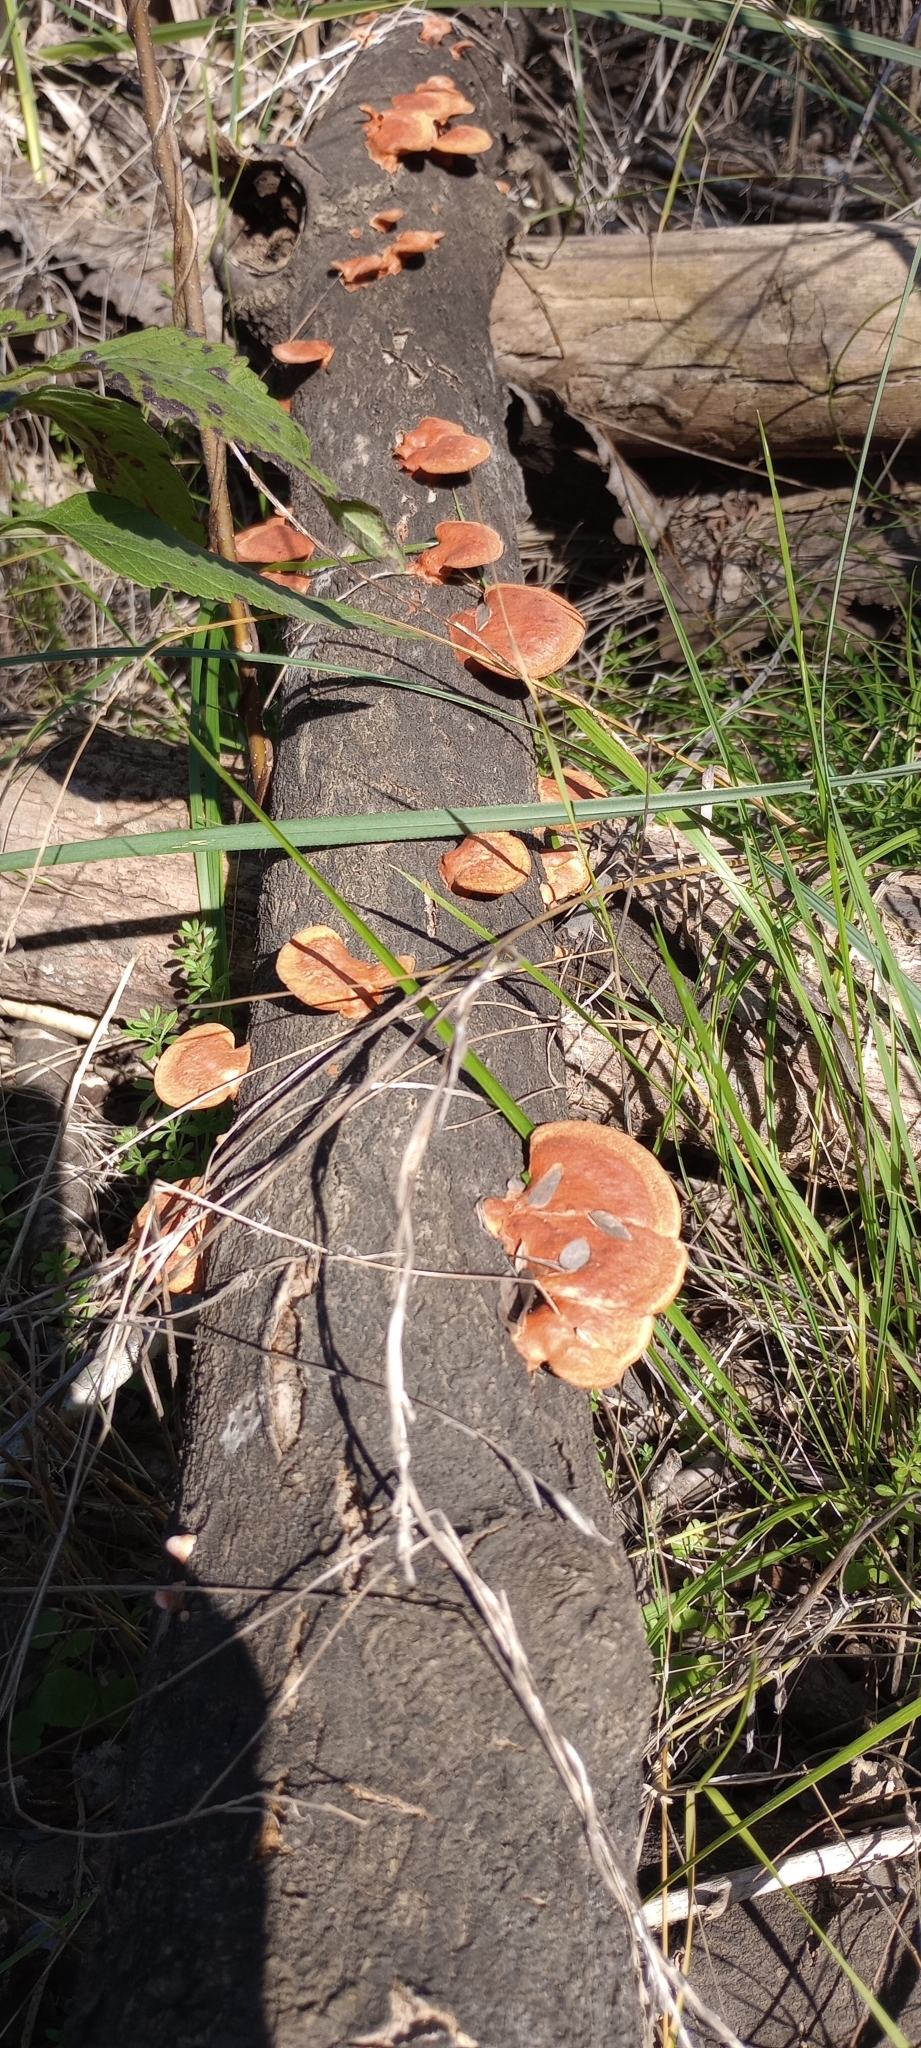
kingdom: Fungi
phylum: Basidiomycota
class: Agaricomycetes
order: Polyporales
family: Polyporaceae
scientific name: Polyporaceae
